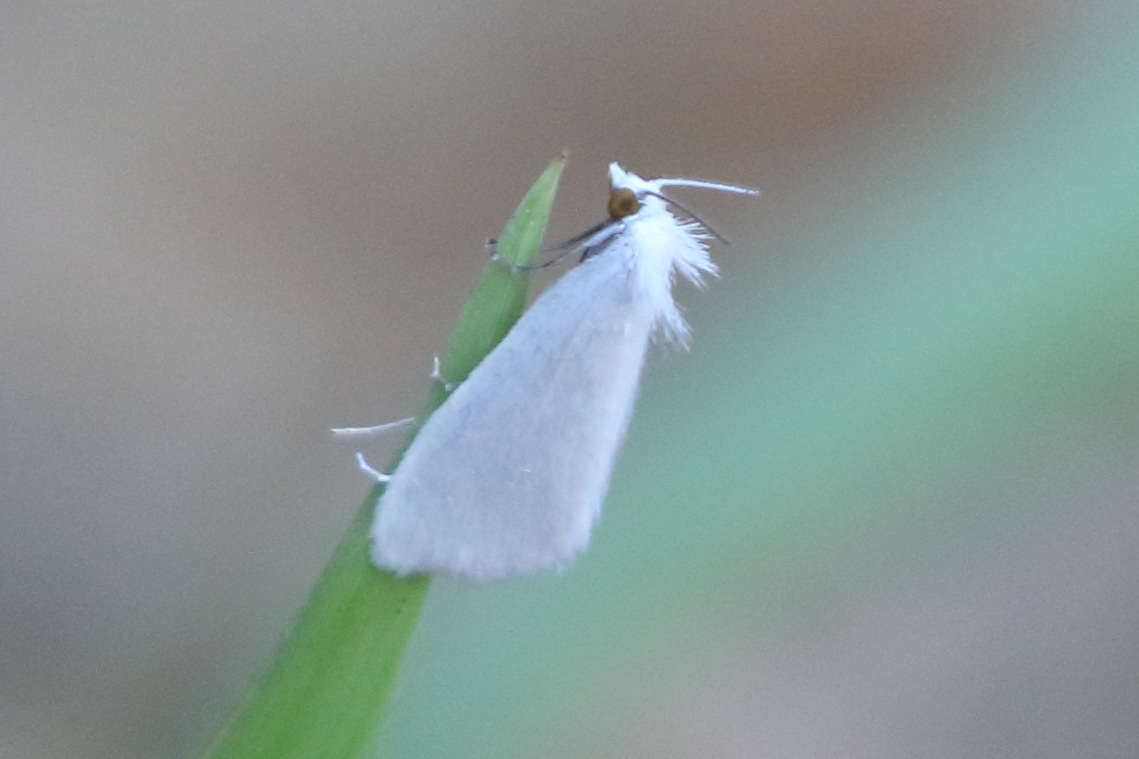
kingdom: Animalia
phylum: Arthropoda
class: Insecta
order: Lepidoptera
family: Crambidae
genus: Tipanaea
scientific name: Tipanaea patulella
